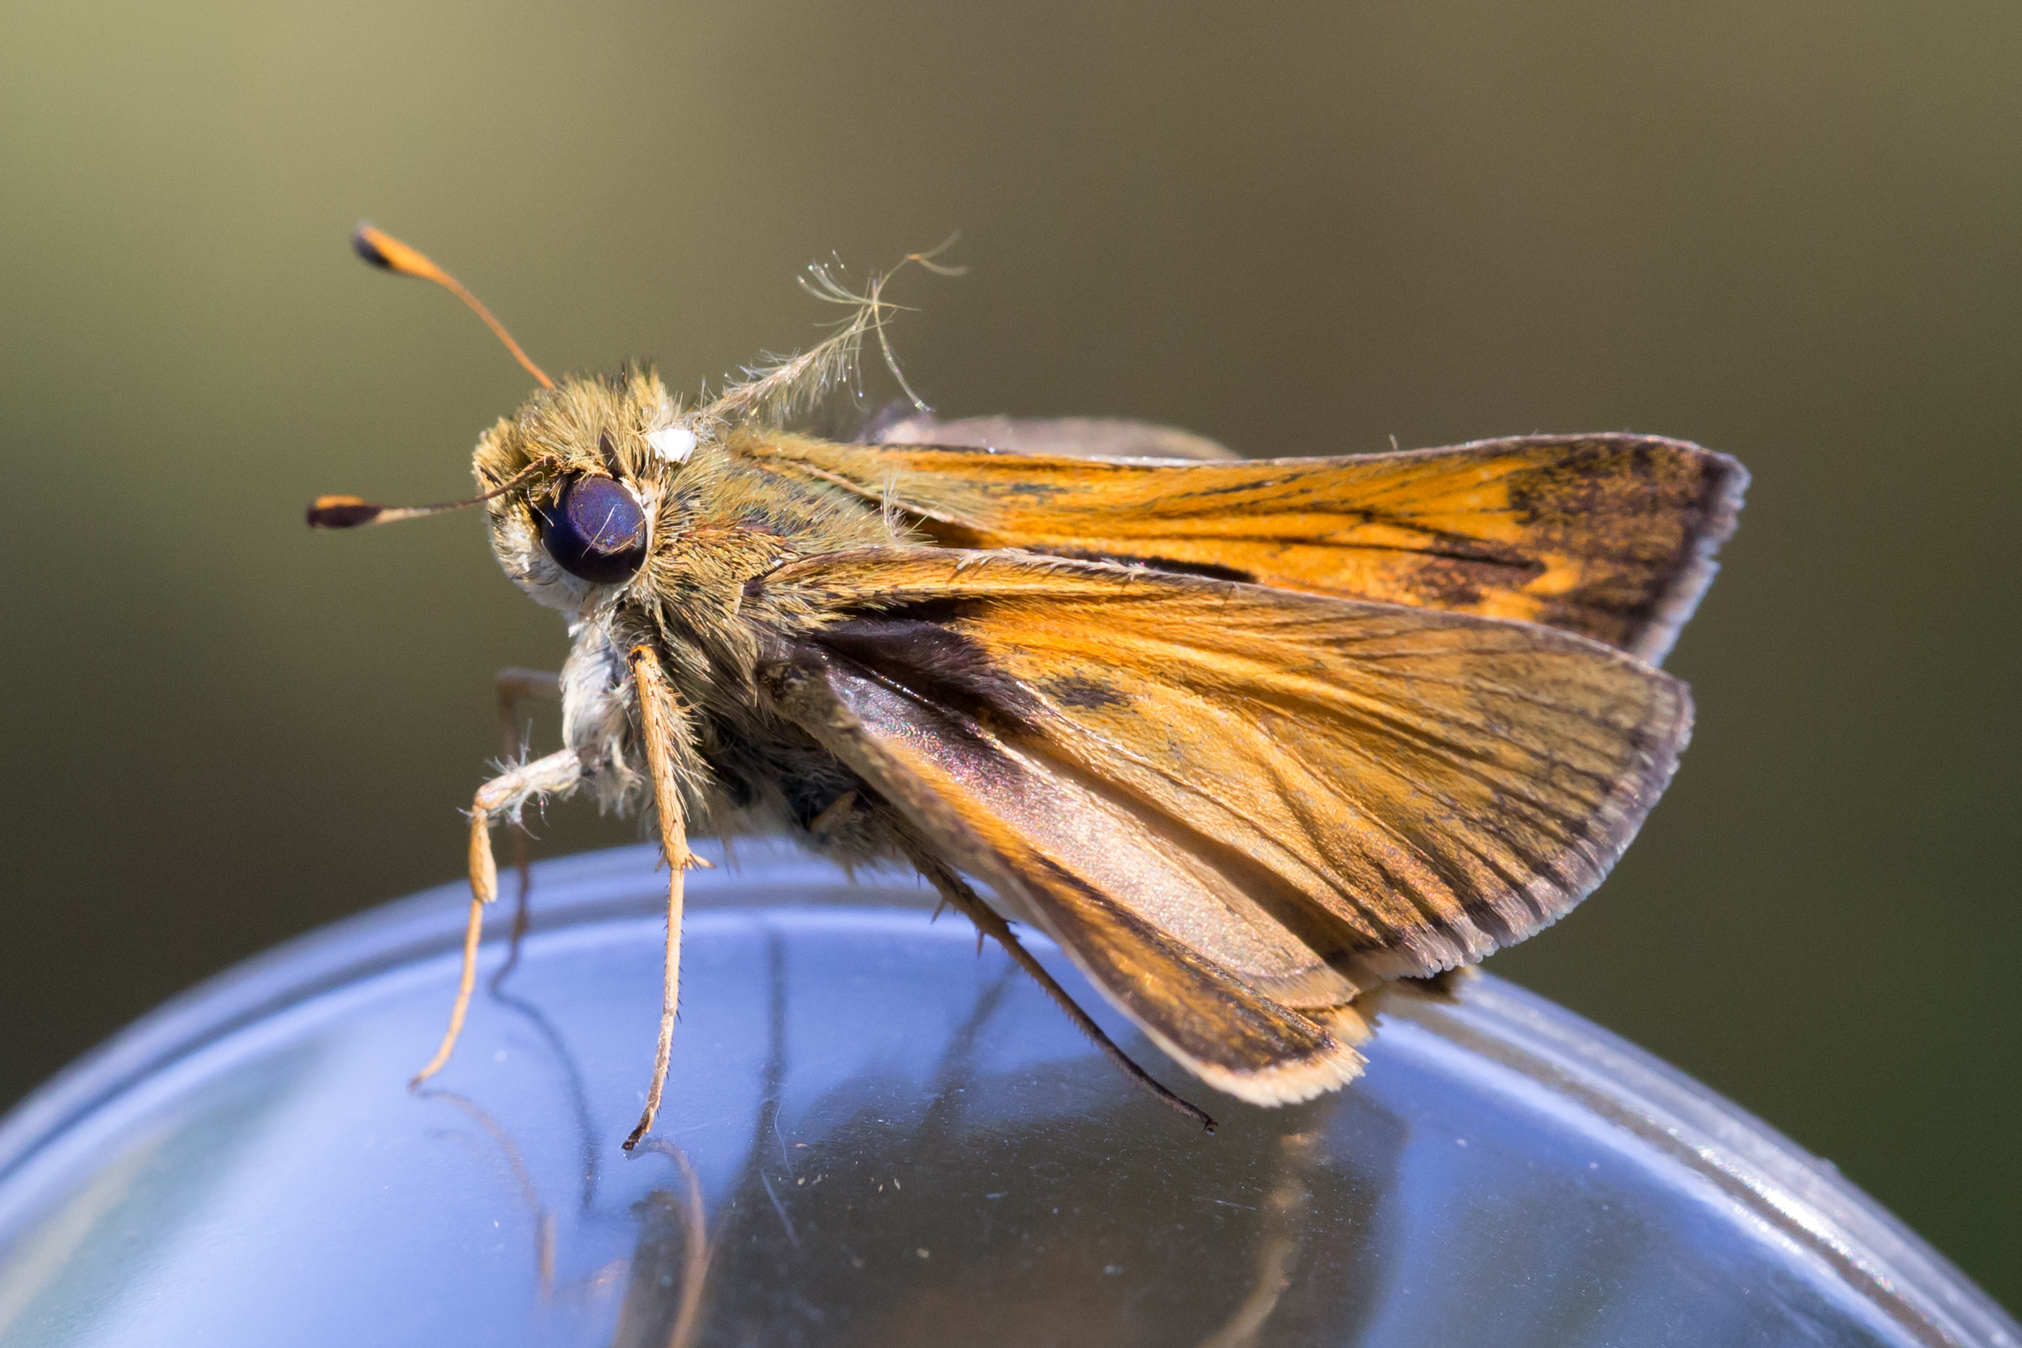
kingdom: Animalia
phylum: Arthropoda
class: Insecta
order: Lepidoptera
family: Hesperiidae
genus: Atalopedes
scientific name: Atalopedes
